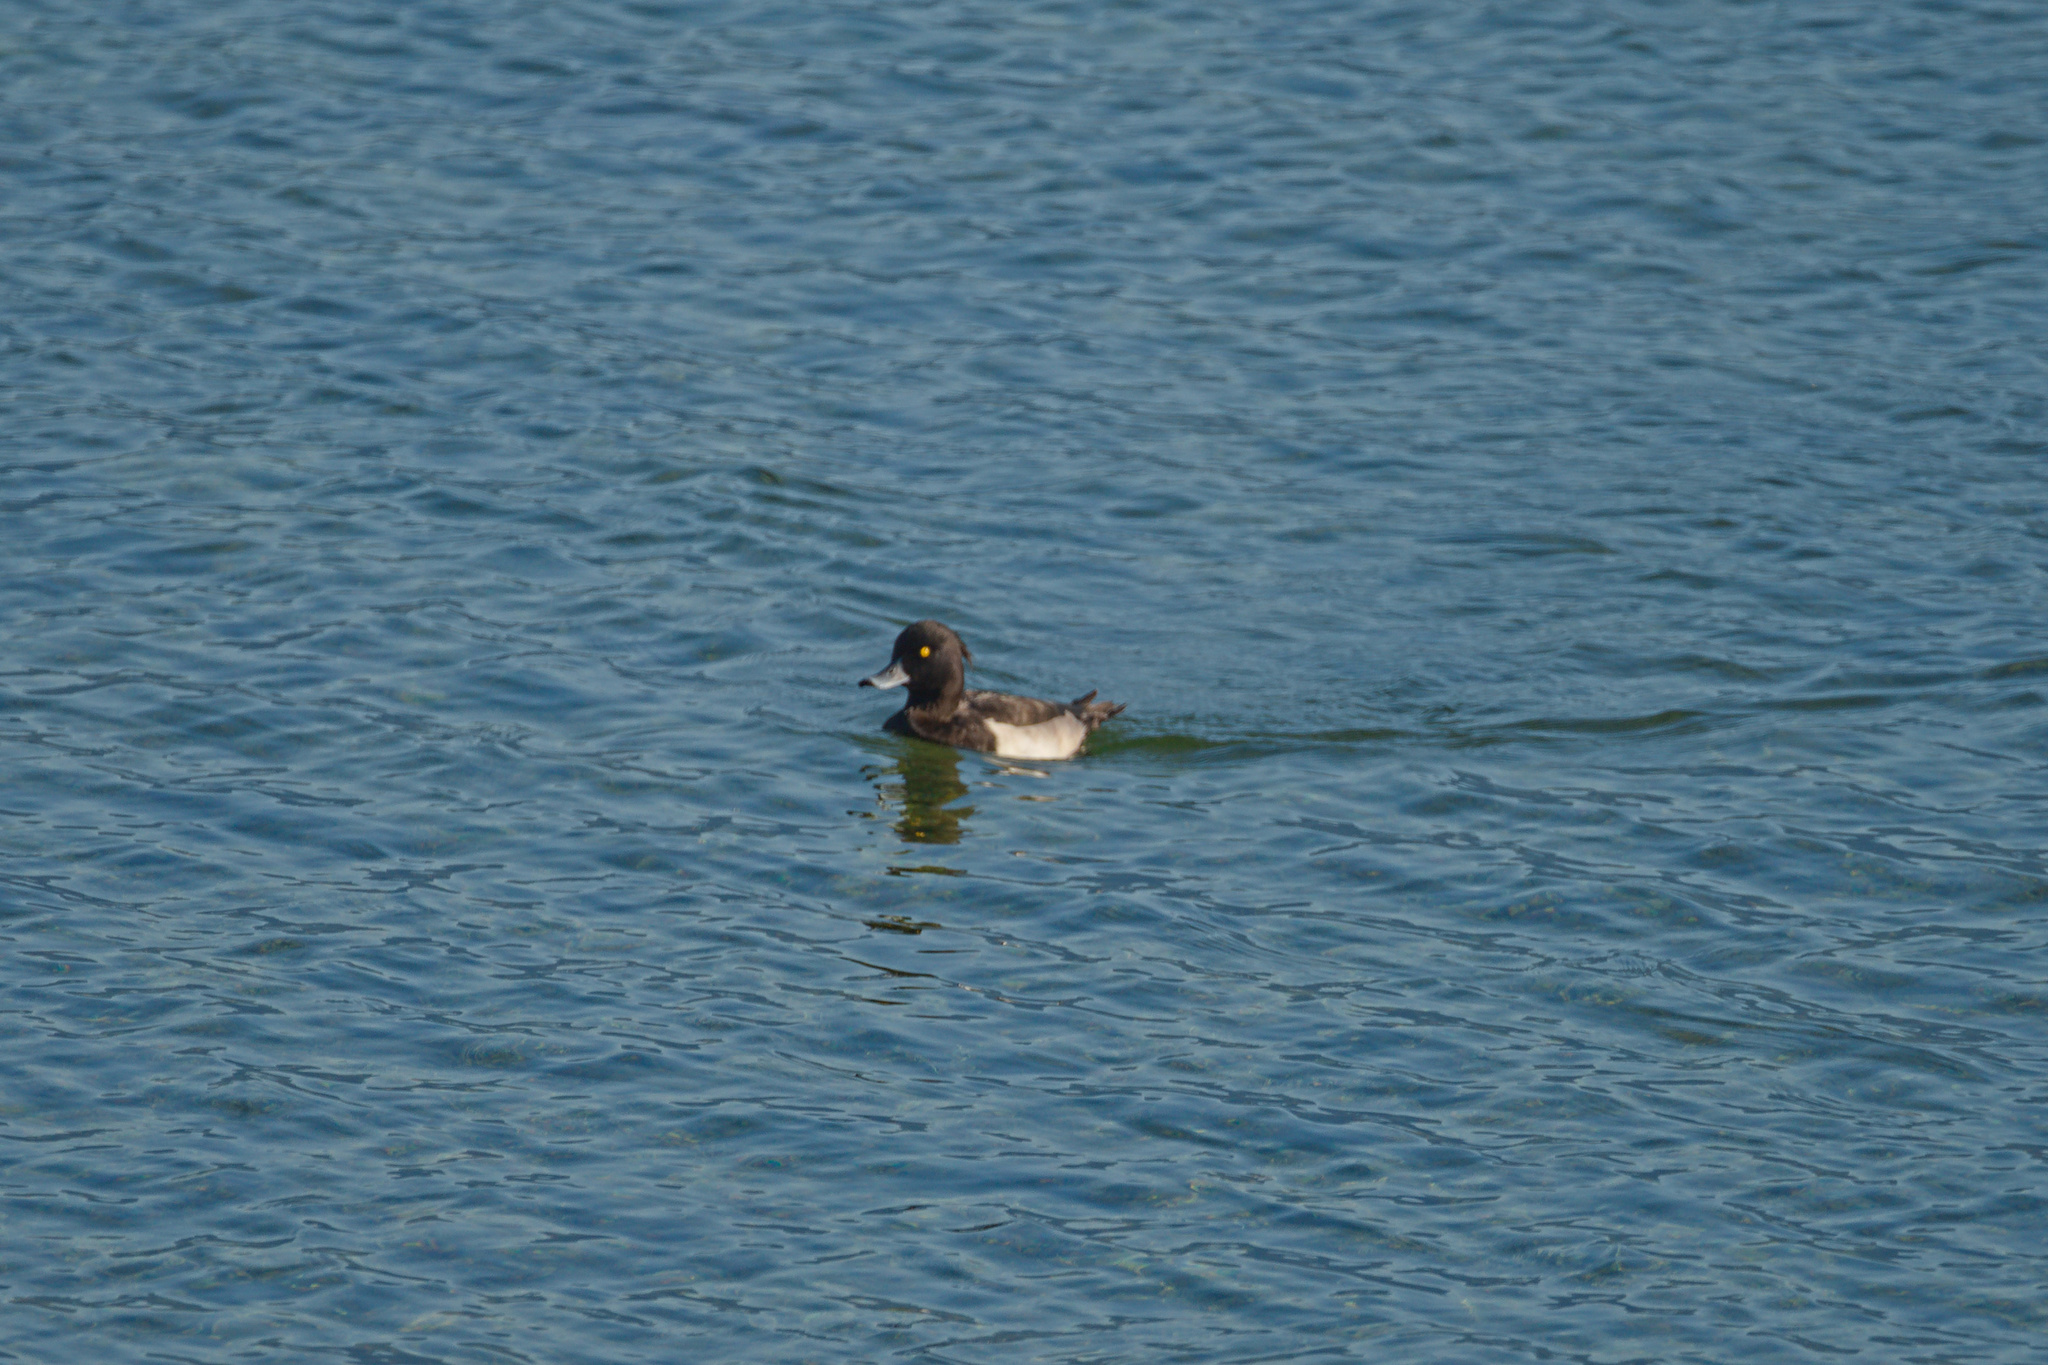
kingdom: Animalia
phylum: Chordata
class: Aves
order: Anseriformes
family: Anatidae
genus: Aythya
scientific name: Aythya fuligula
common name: Tufted duck
